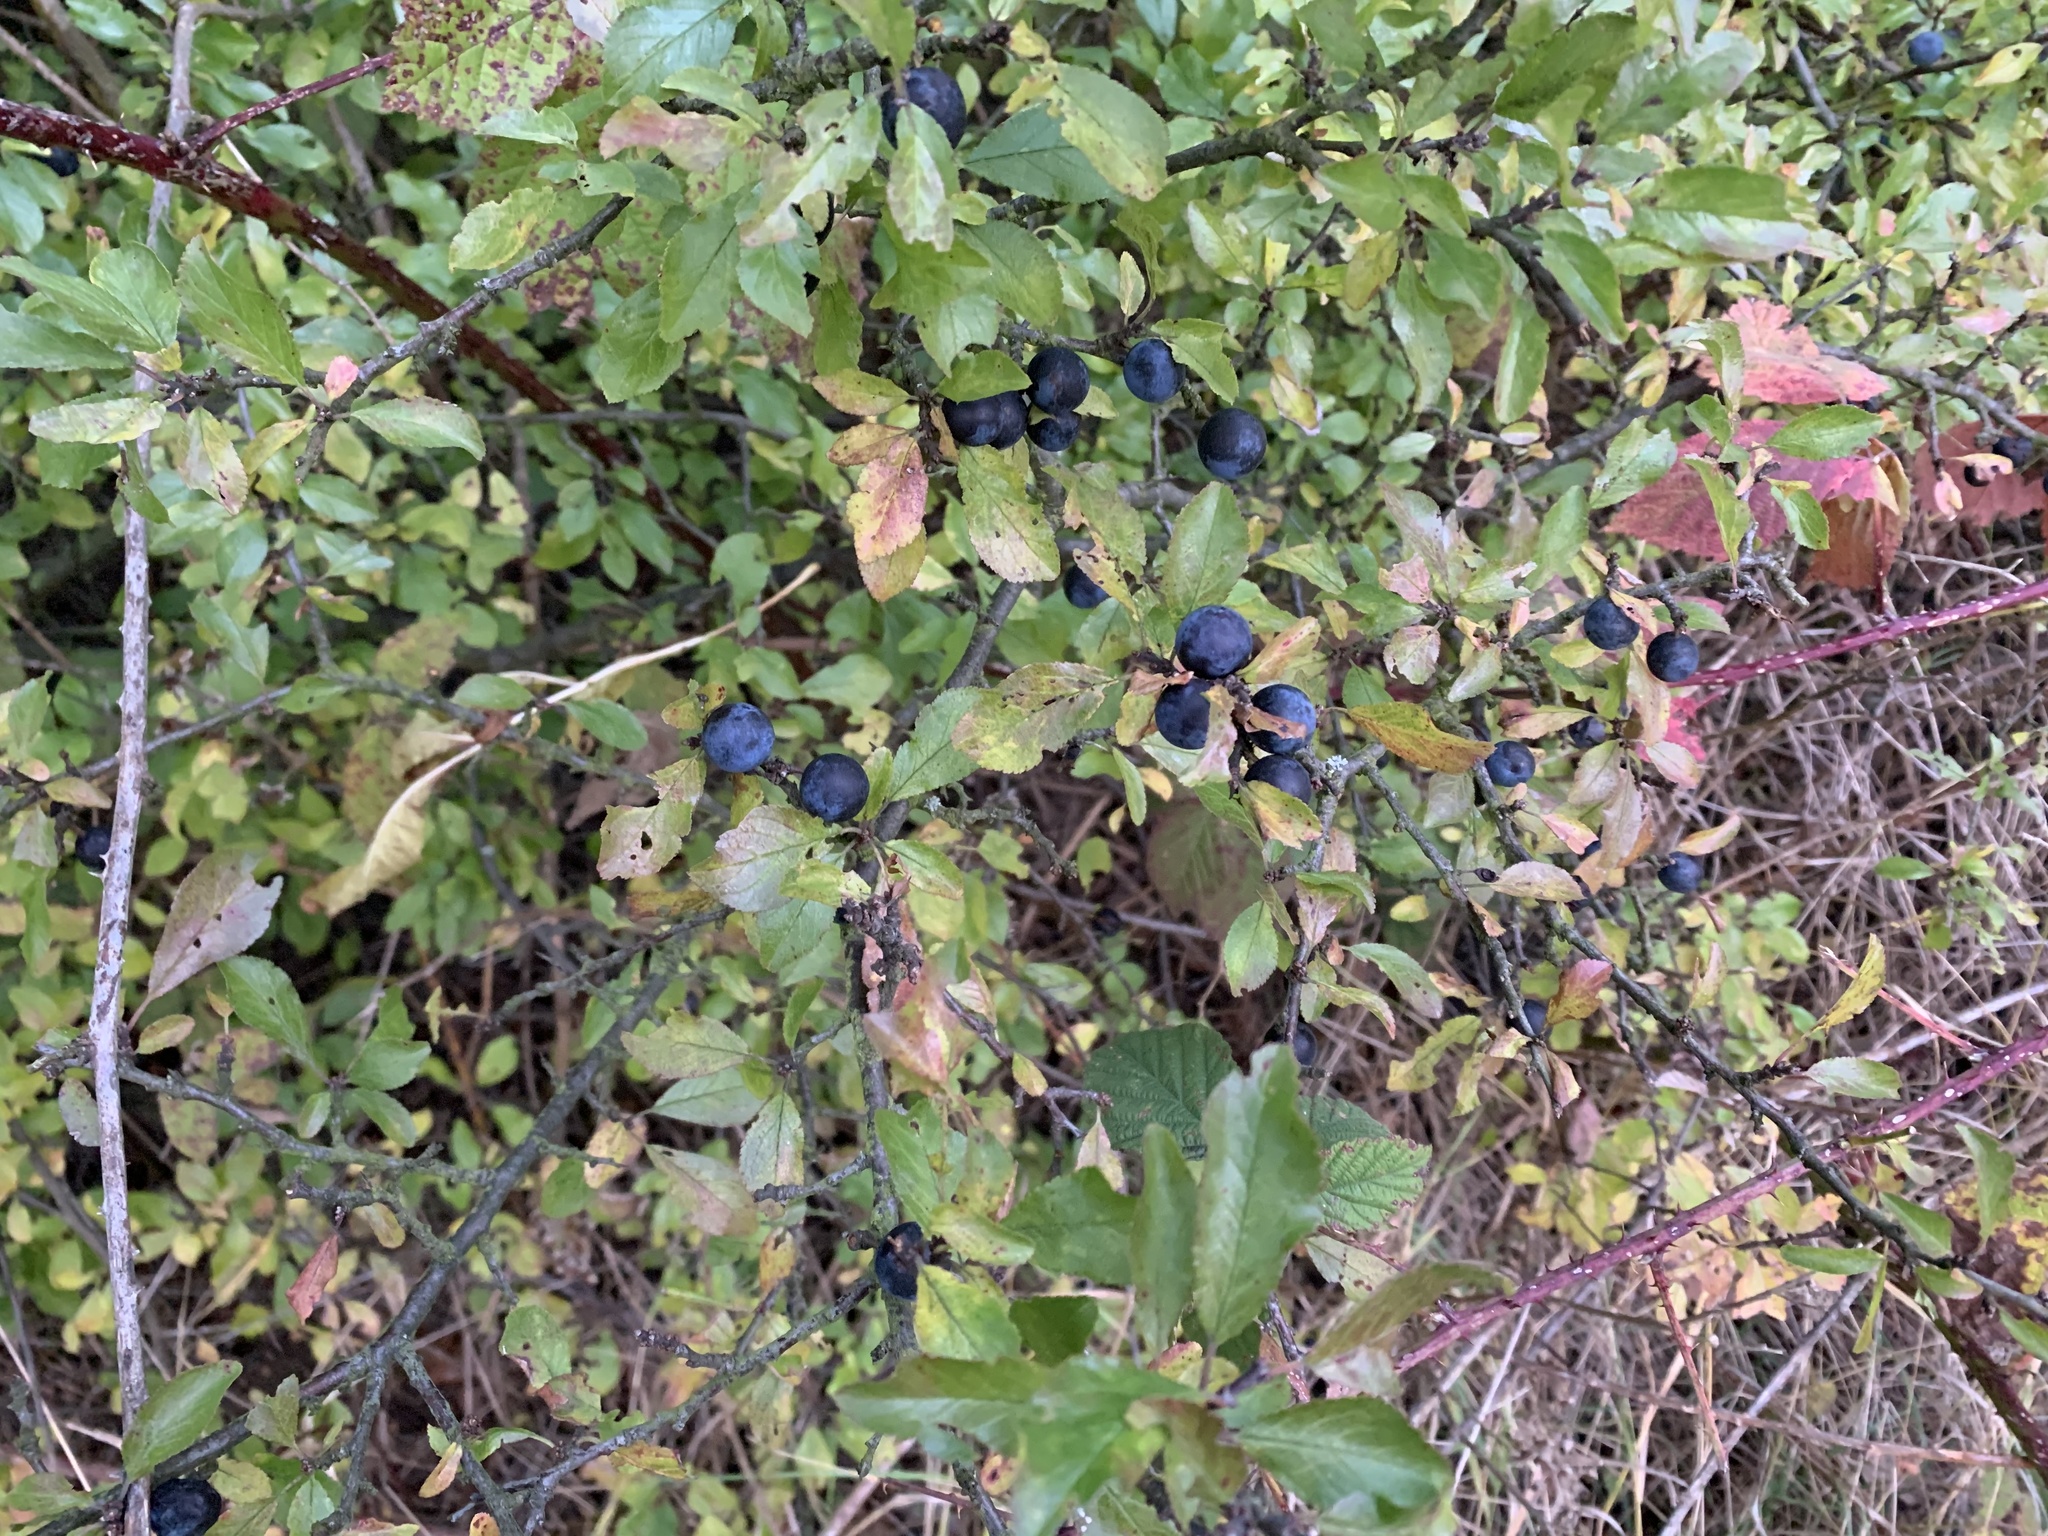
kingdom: Plantae
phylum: Tracheophyta
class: Magnoliopsida
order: Rosales
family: Rosaceae
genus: Prunus
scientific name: Prunus spinosa
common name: Blackthorn
